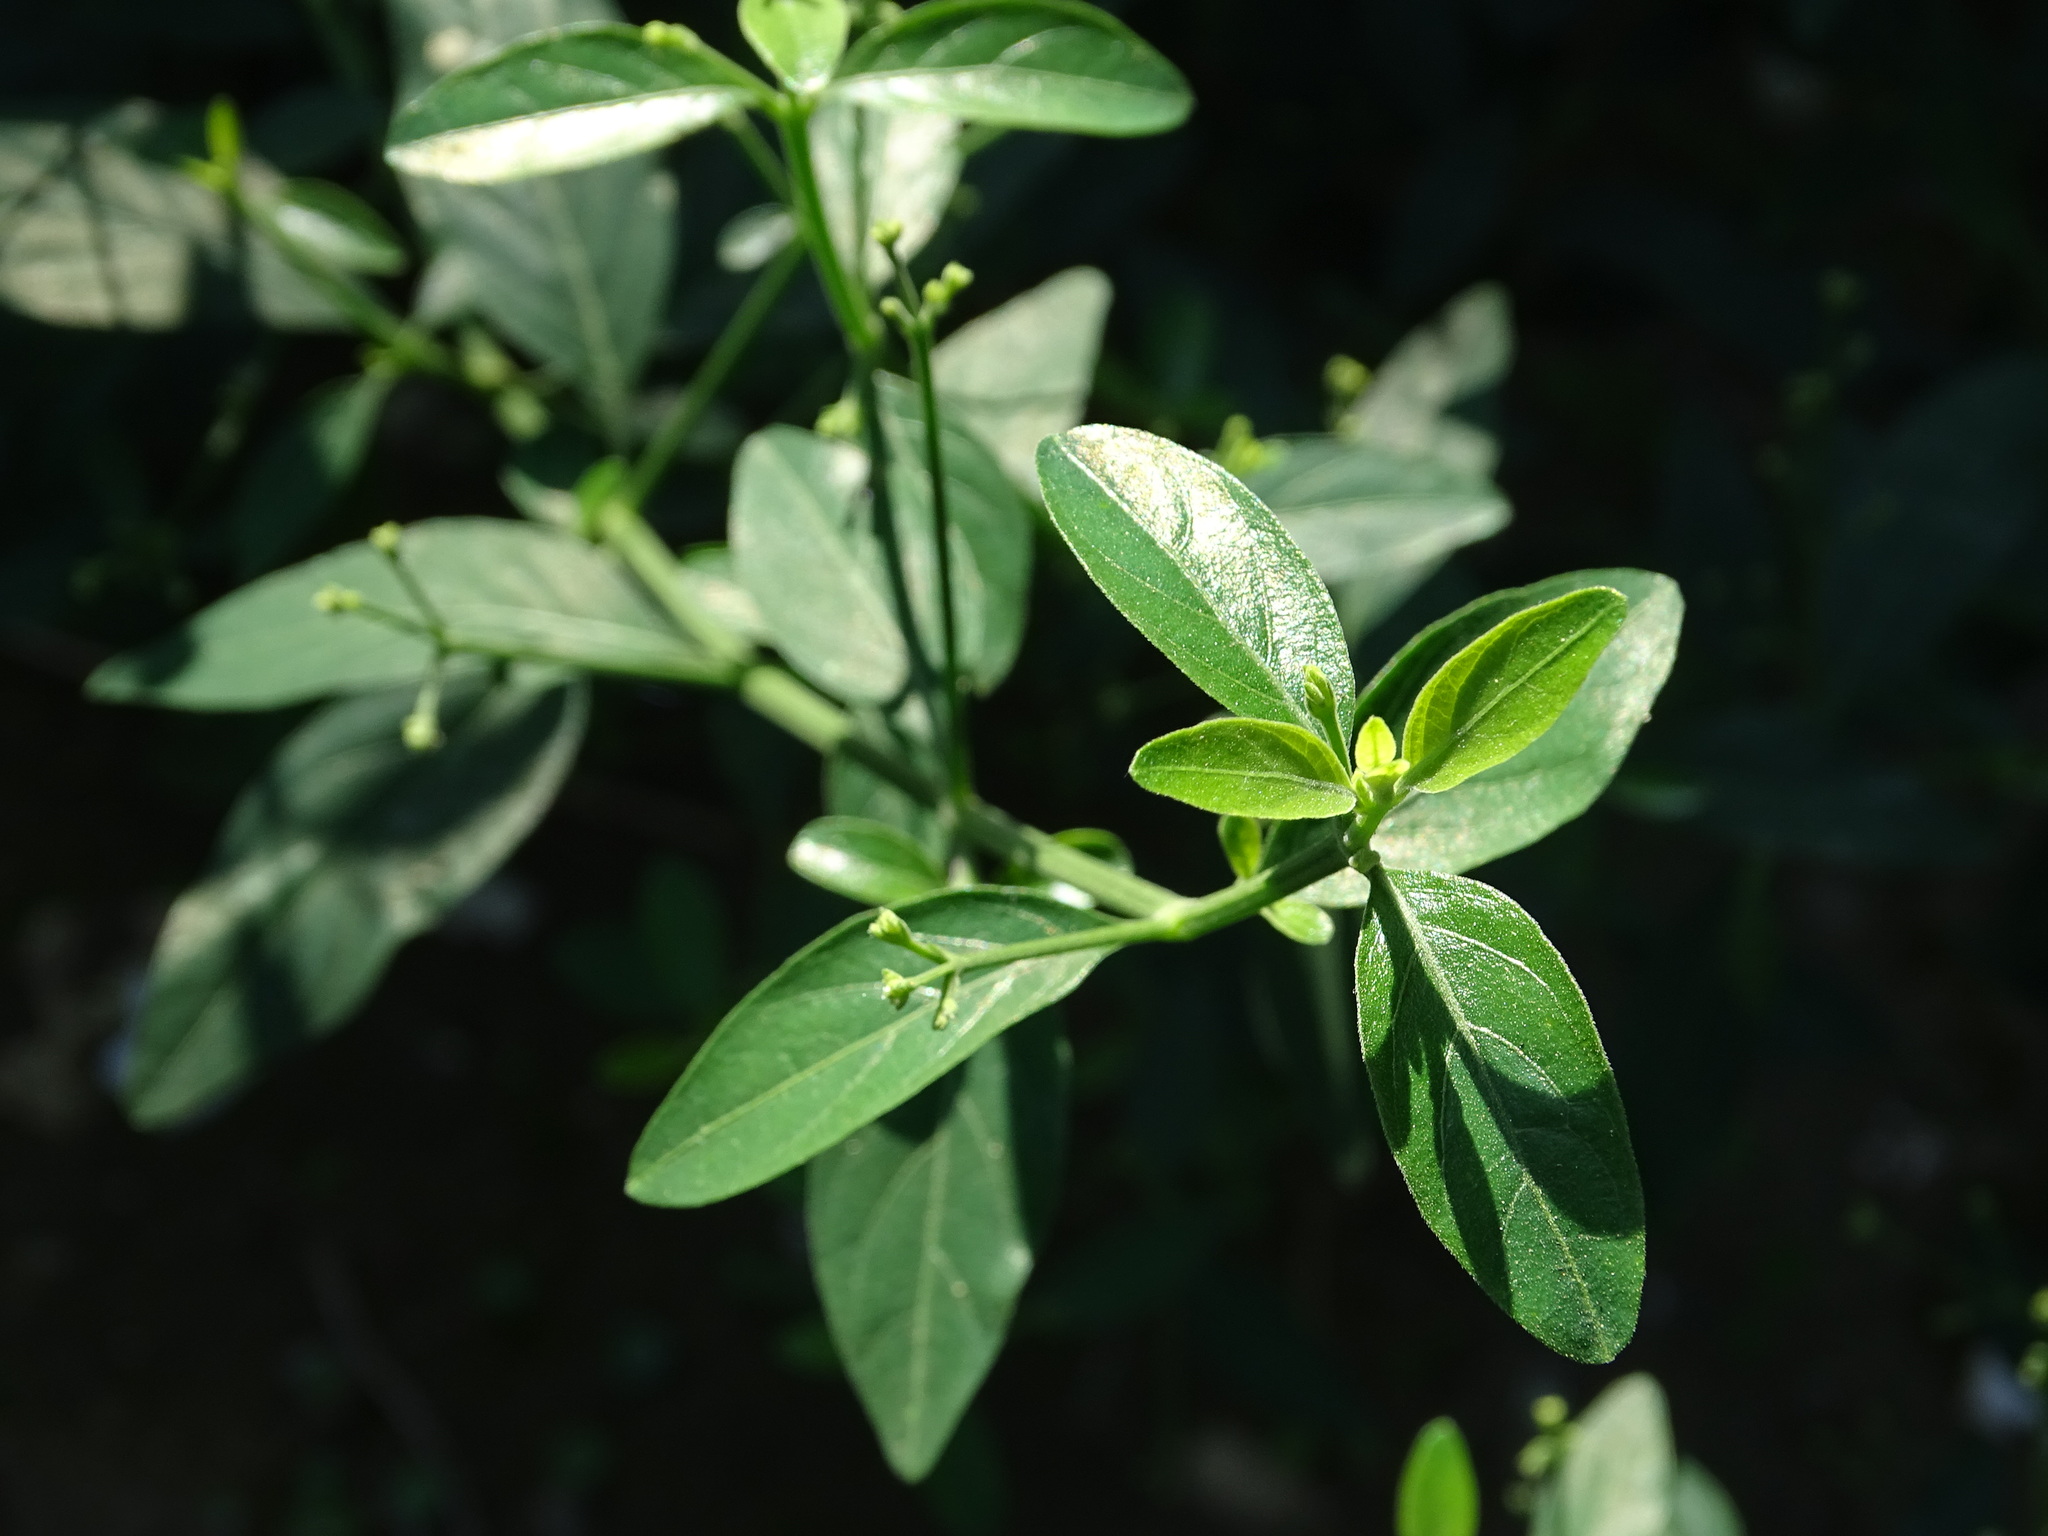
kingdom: Plantae
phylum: Tracheophyta
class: Magnoliopsida
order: Lamiales
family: Acanthaceae
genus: Rhinacanthus
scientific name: Rhinacanthus nasutus
